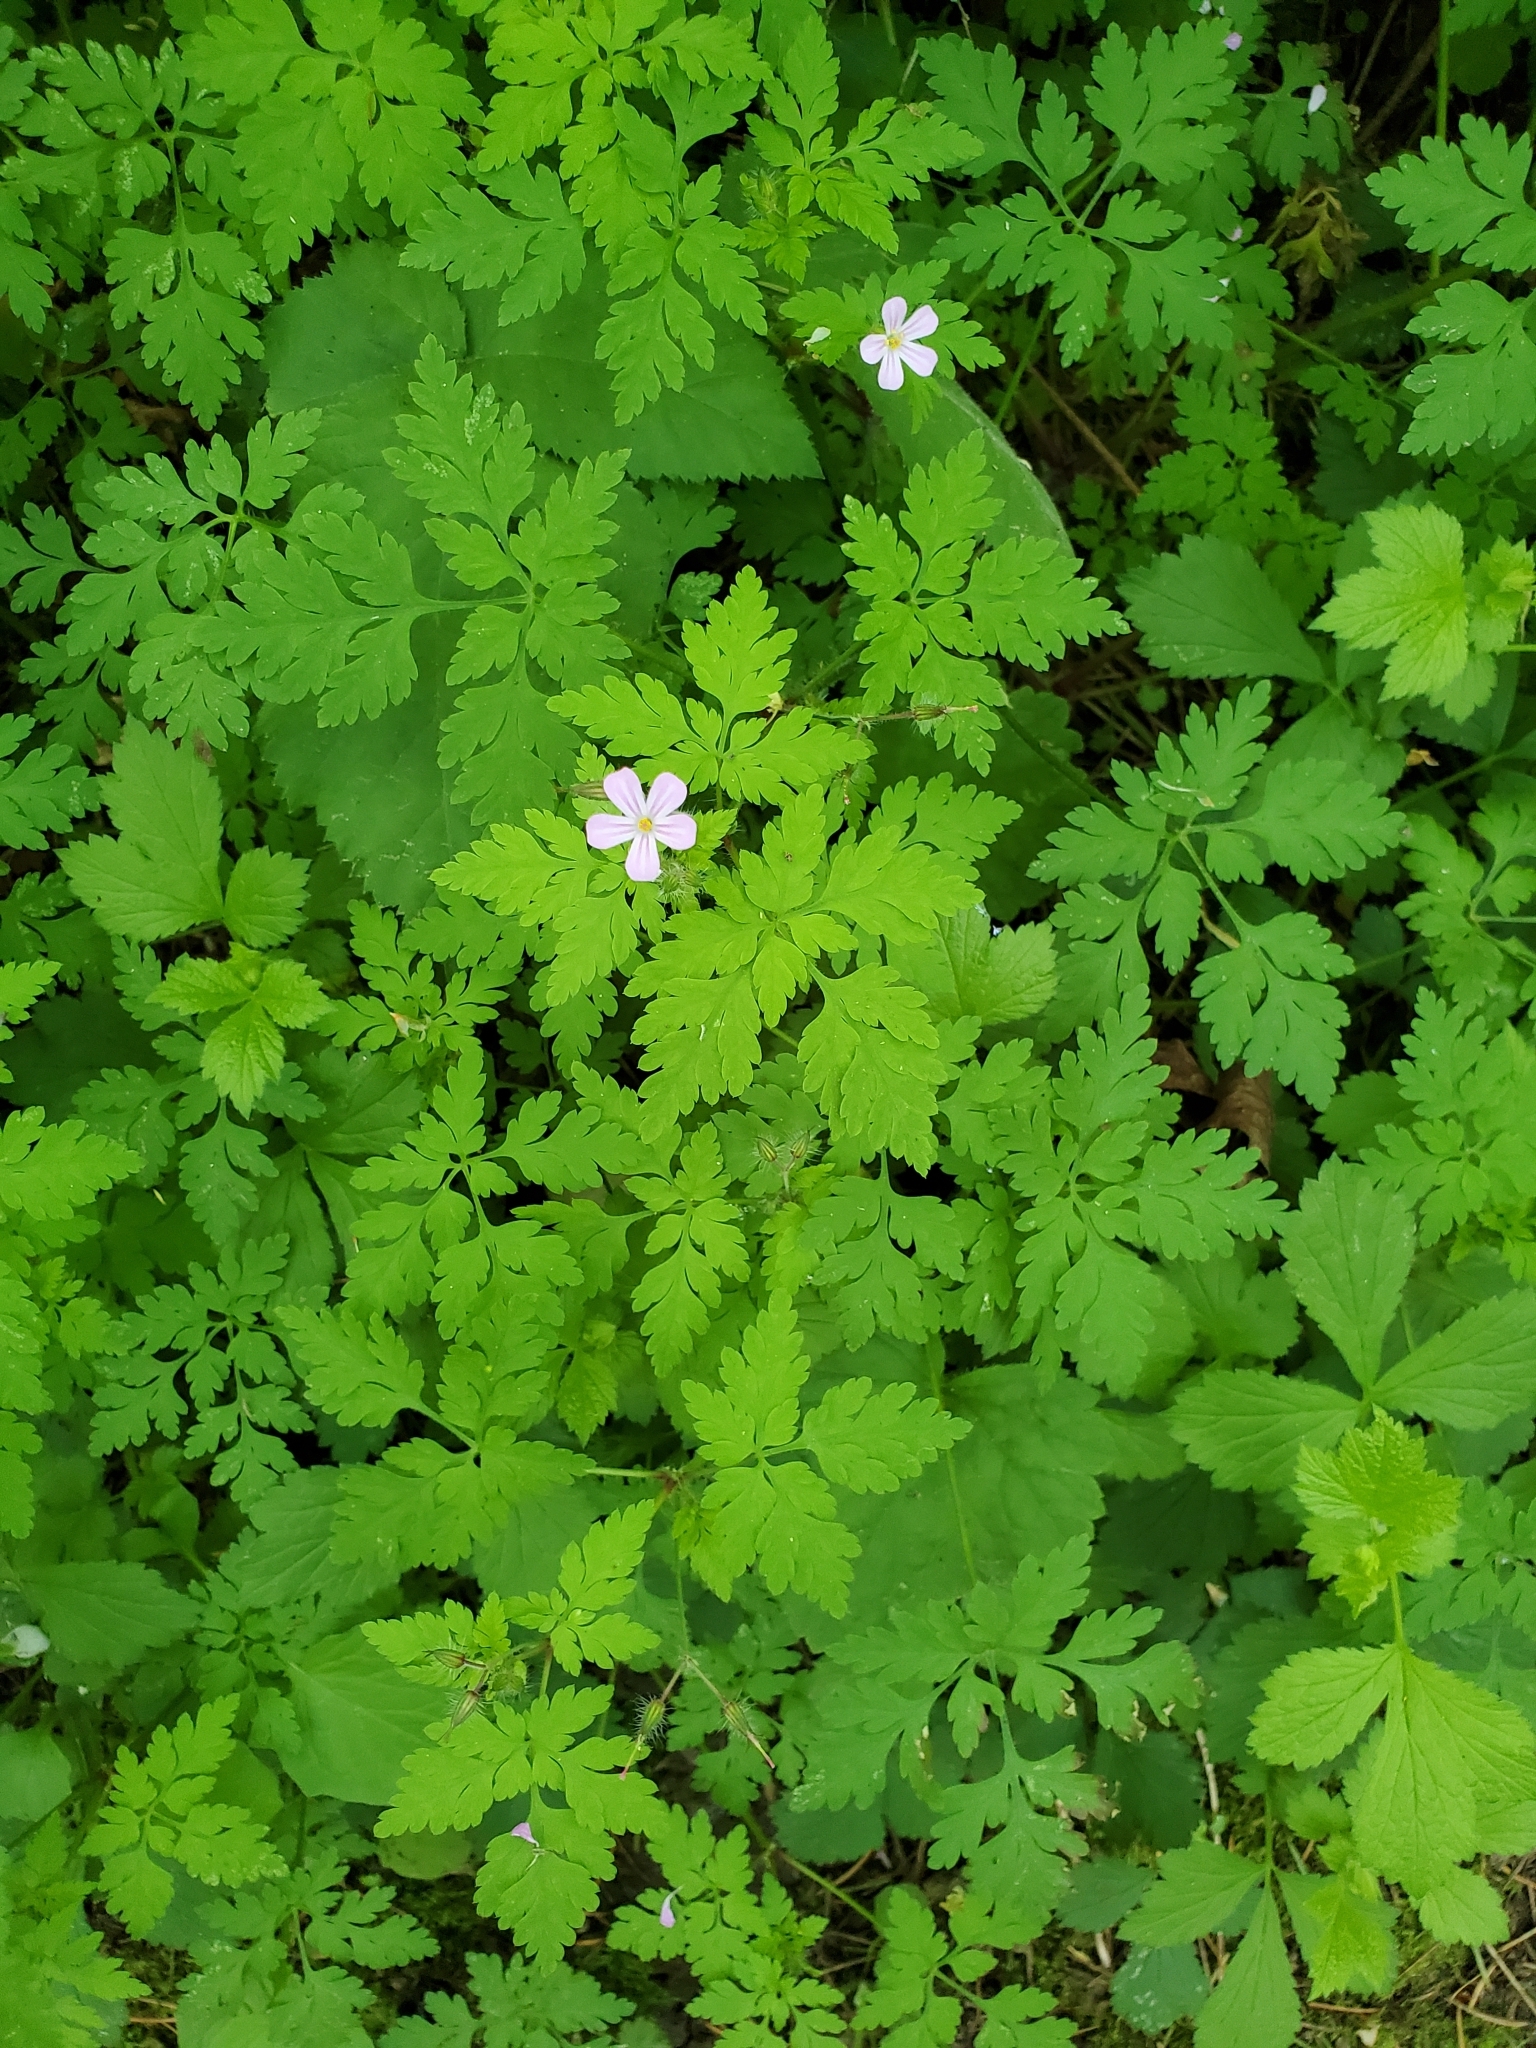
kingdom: Plantae
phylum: Tracheophyta
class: Magnoliopsida
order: Geraniales
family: Geraniaceae
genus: Geranium
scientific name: Geranium robertianum
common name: Herb-robert
